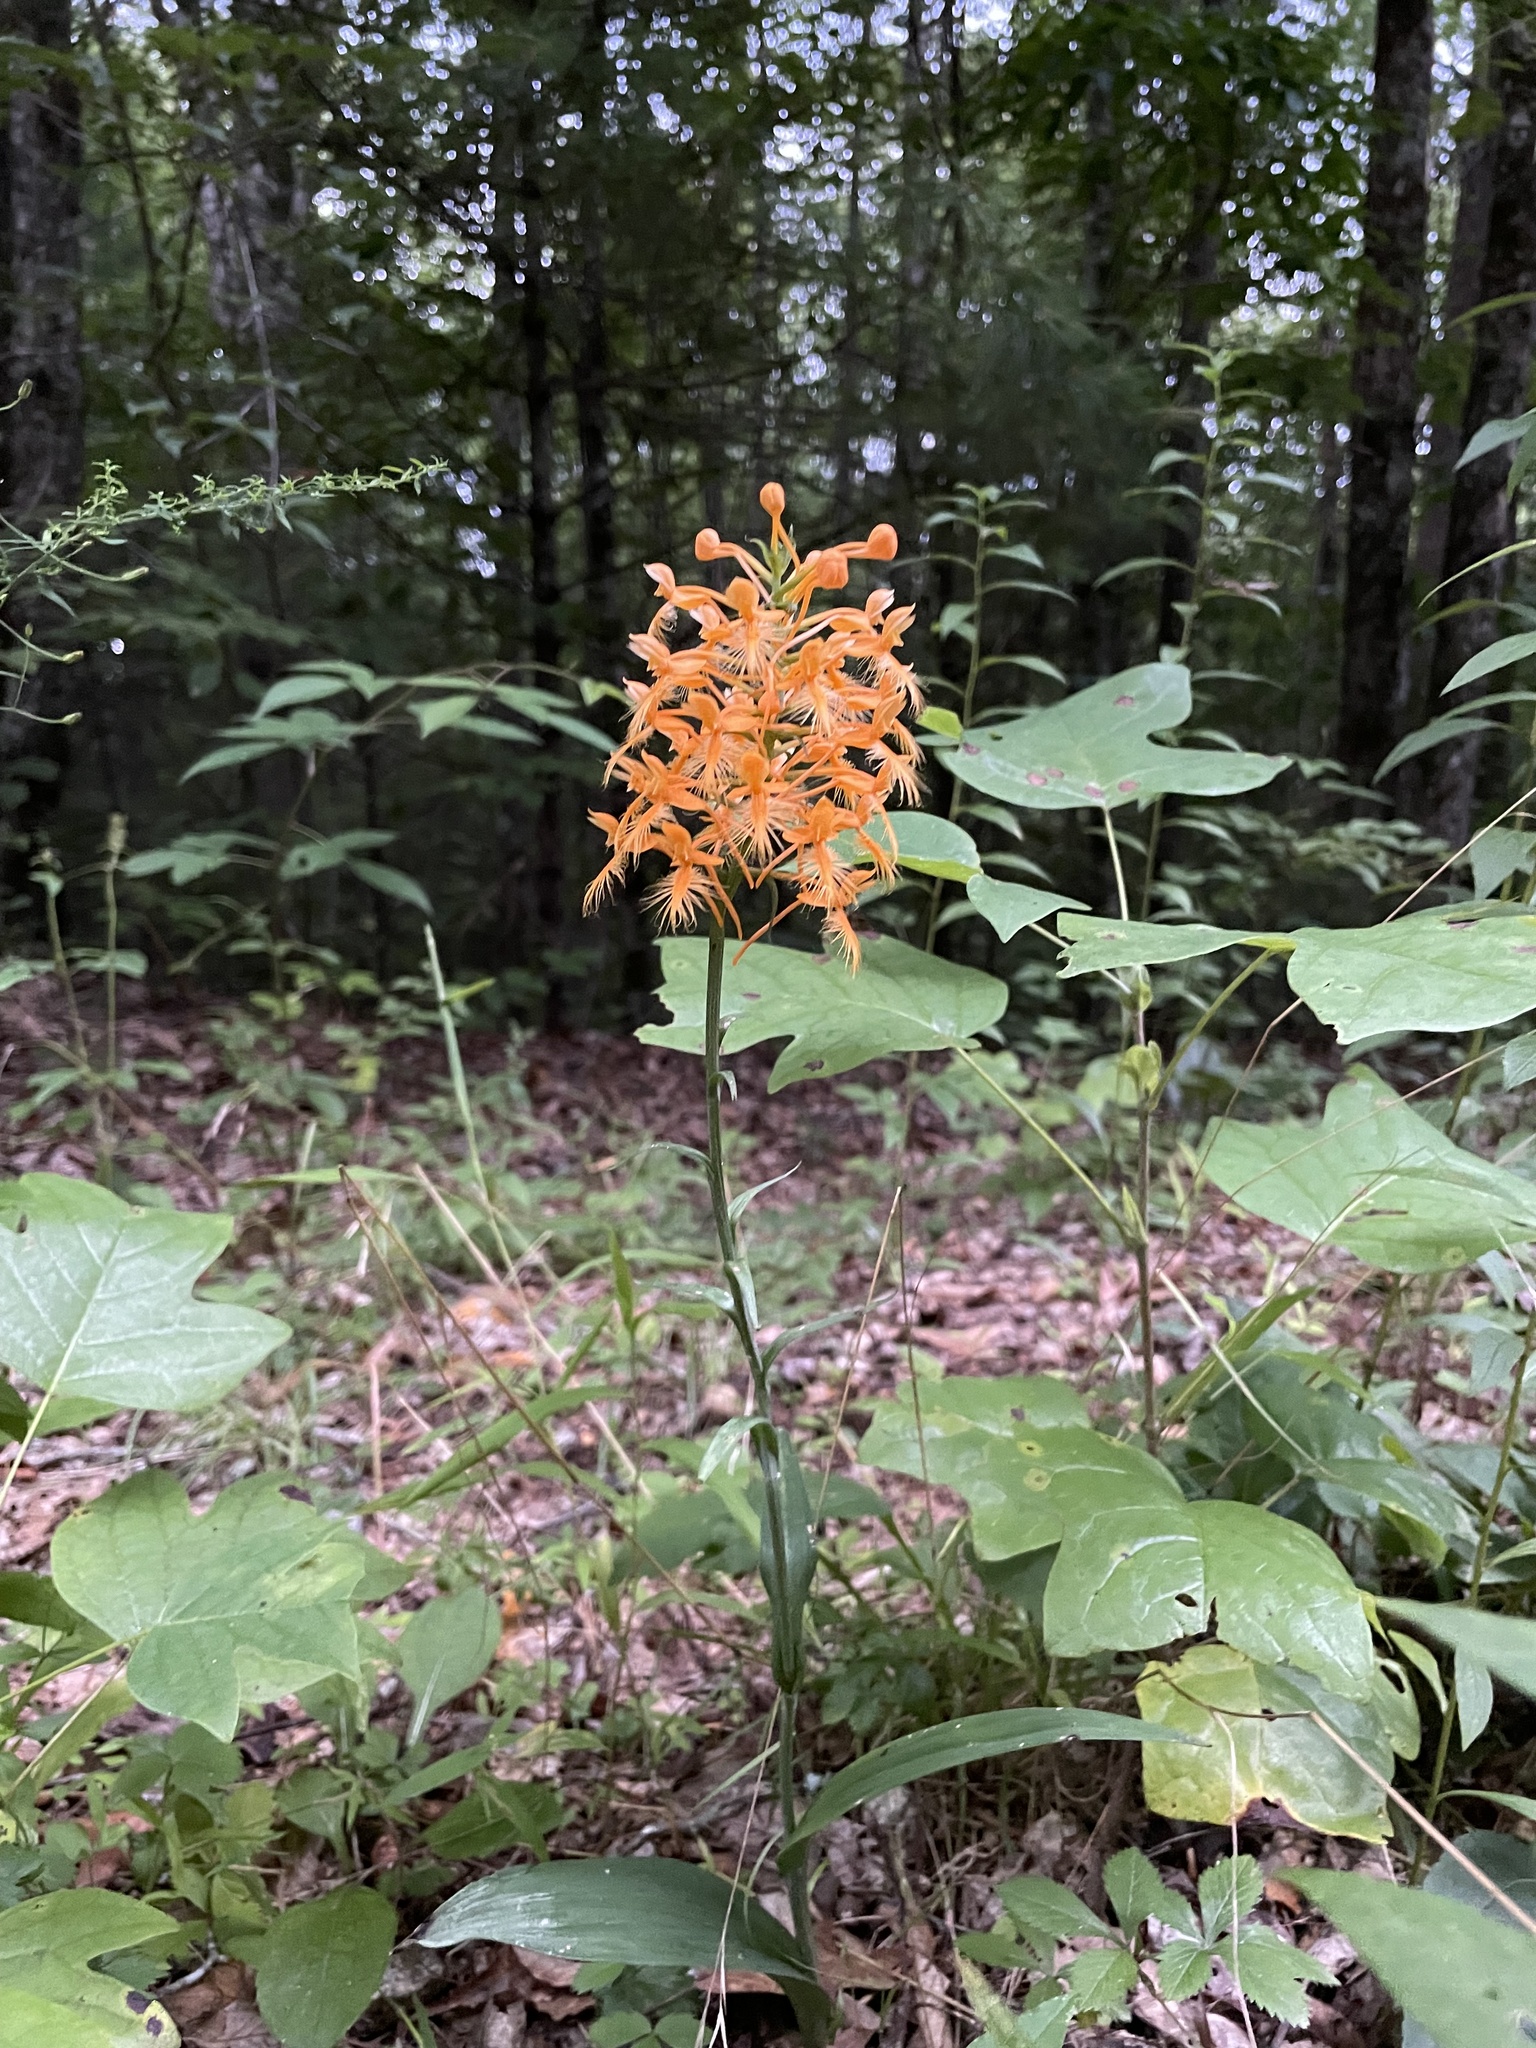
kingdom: Plantae
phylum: Tracheophyta
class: Liliopsida
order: Asparagales
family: Orchidaceae
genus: Platanthera
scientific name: Platanthera ciliaris
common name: Yellow fringed orchid
